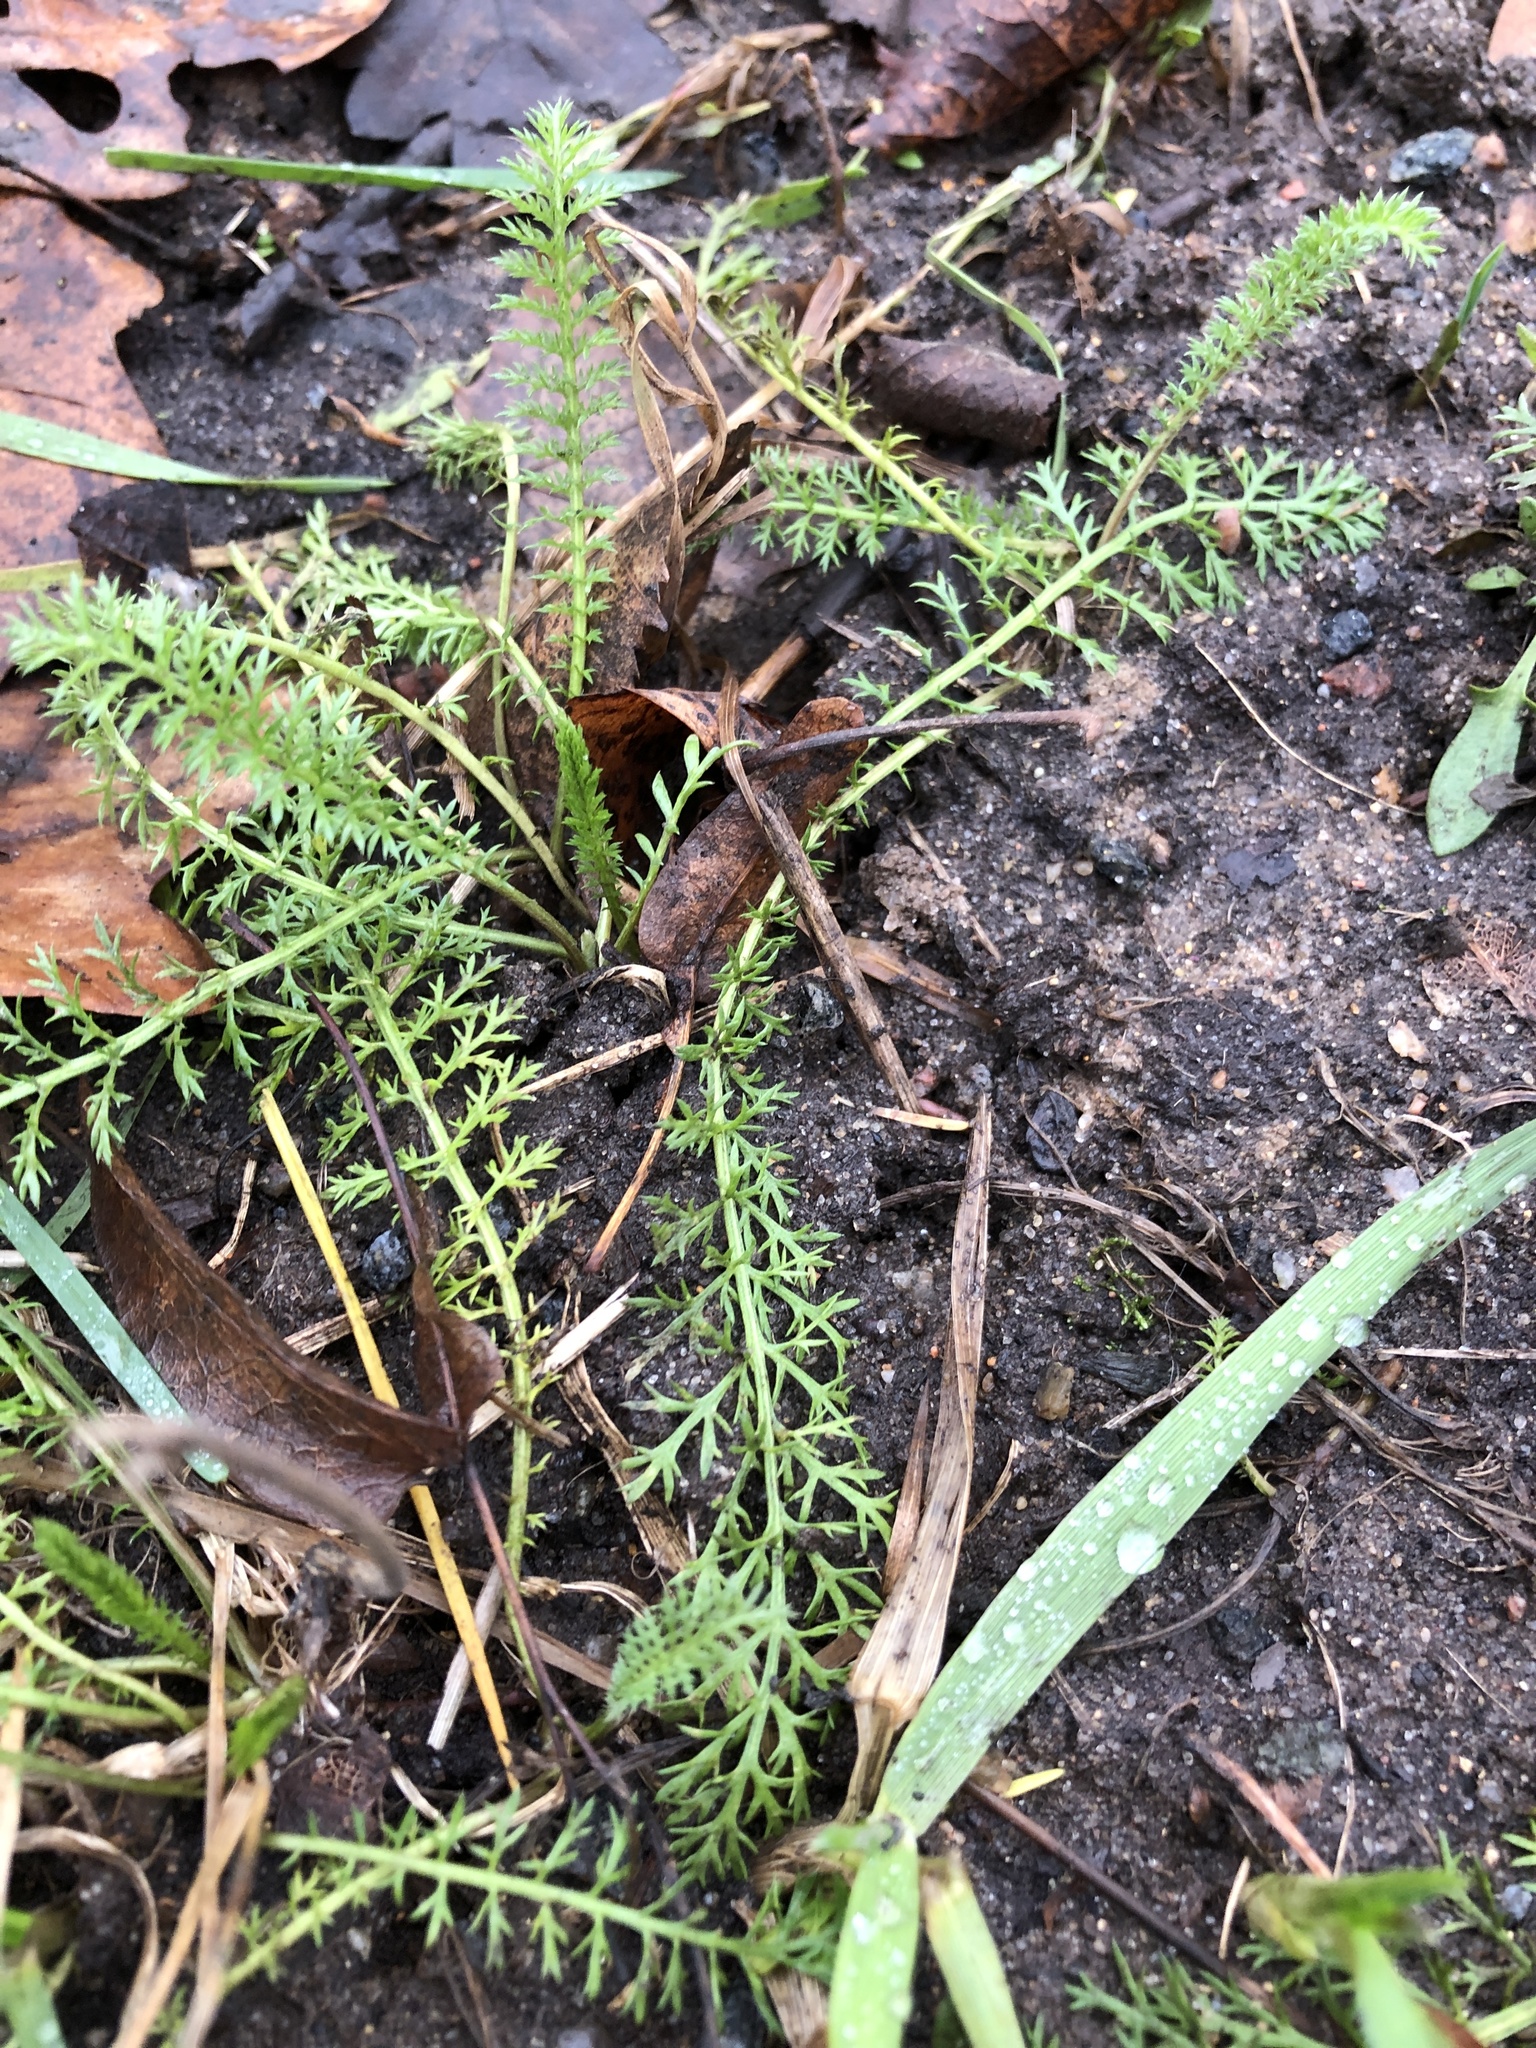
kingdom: Plantae
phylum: Tracheophyta
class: Magnoliopsida
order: Asterales
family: Asteraceae
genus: Achillea
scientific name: Achillea millefolium
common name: Yarrow
